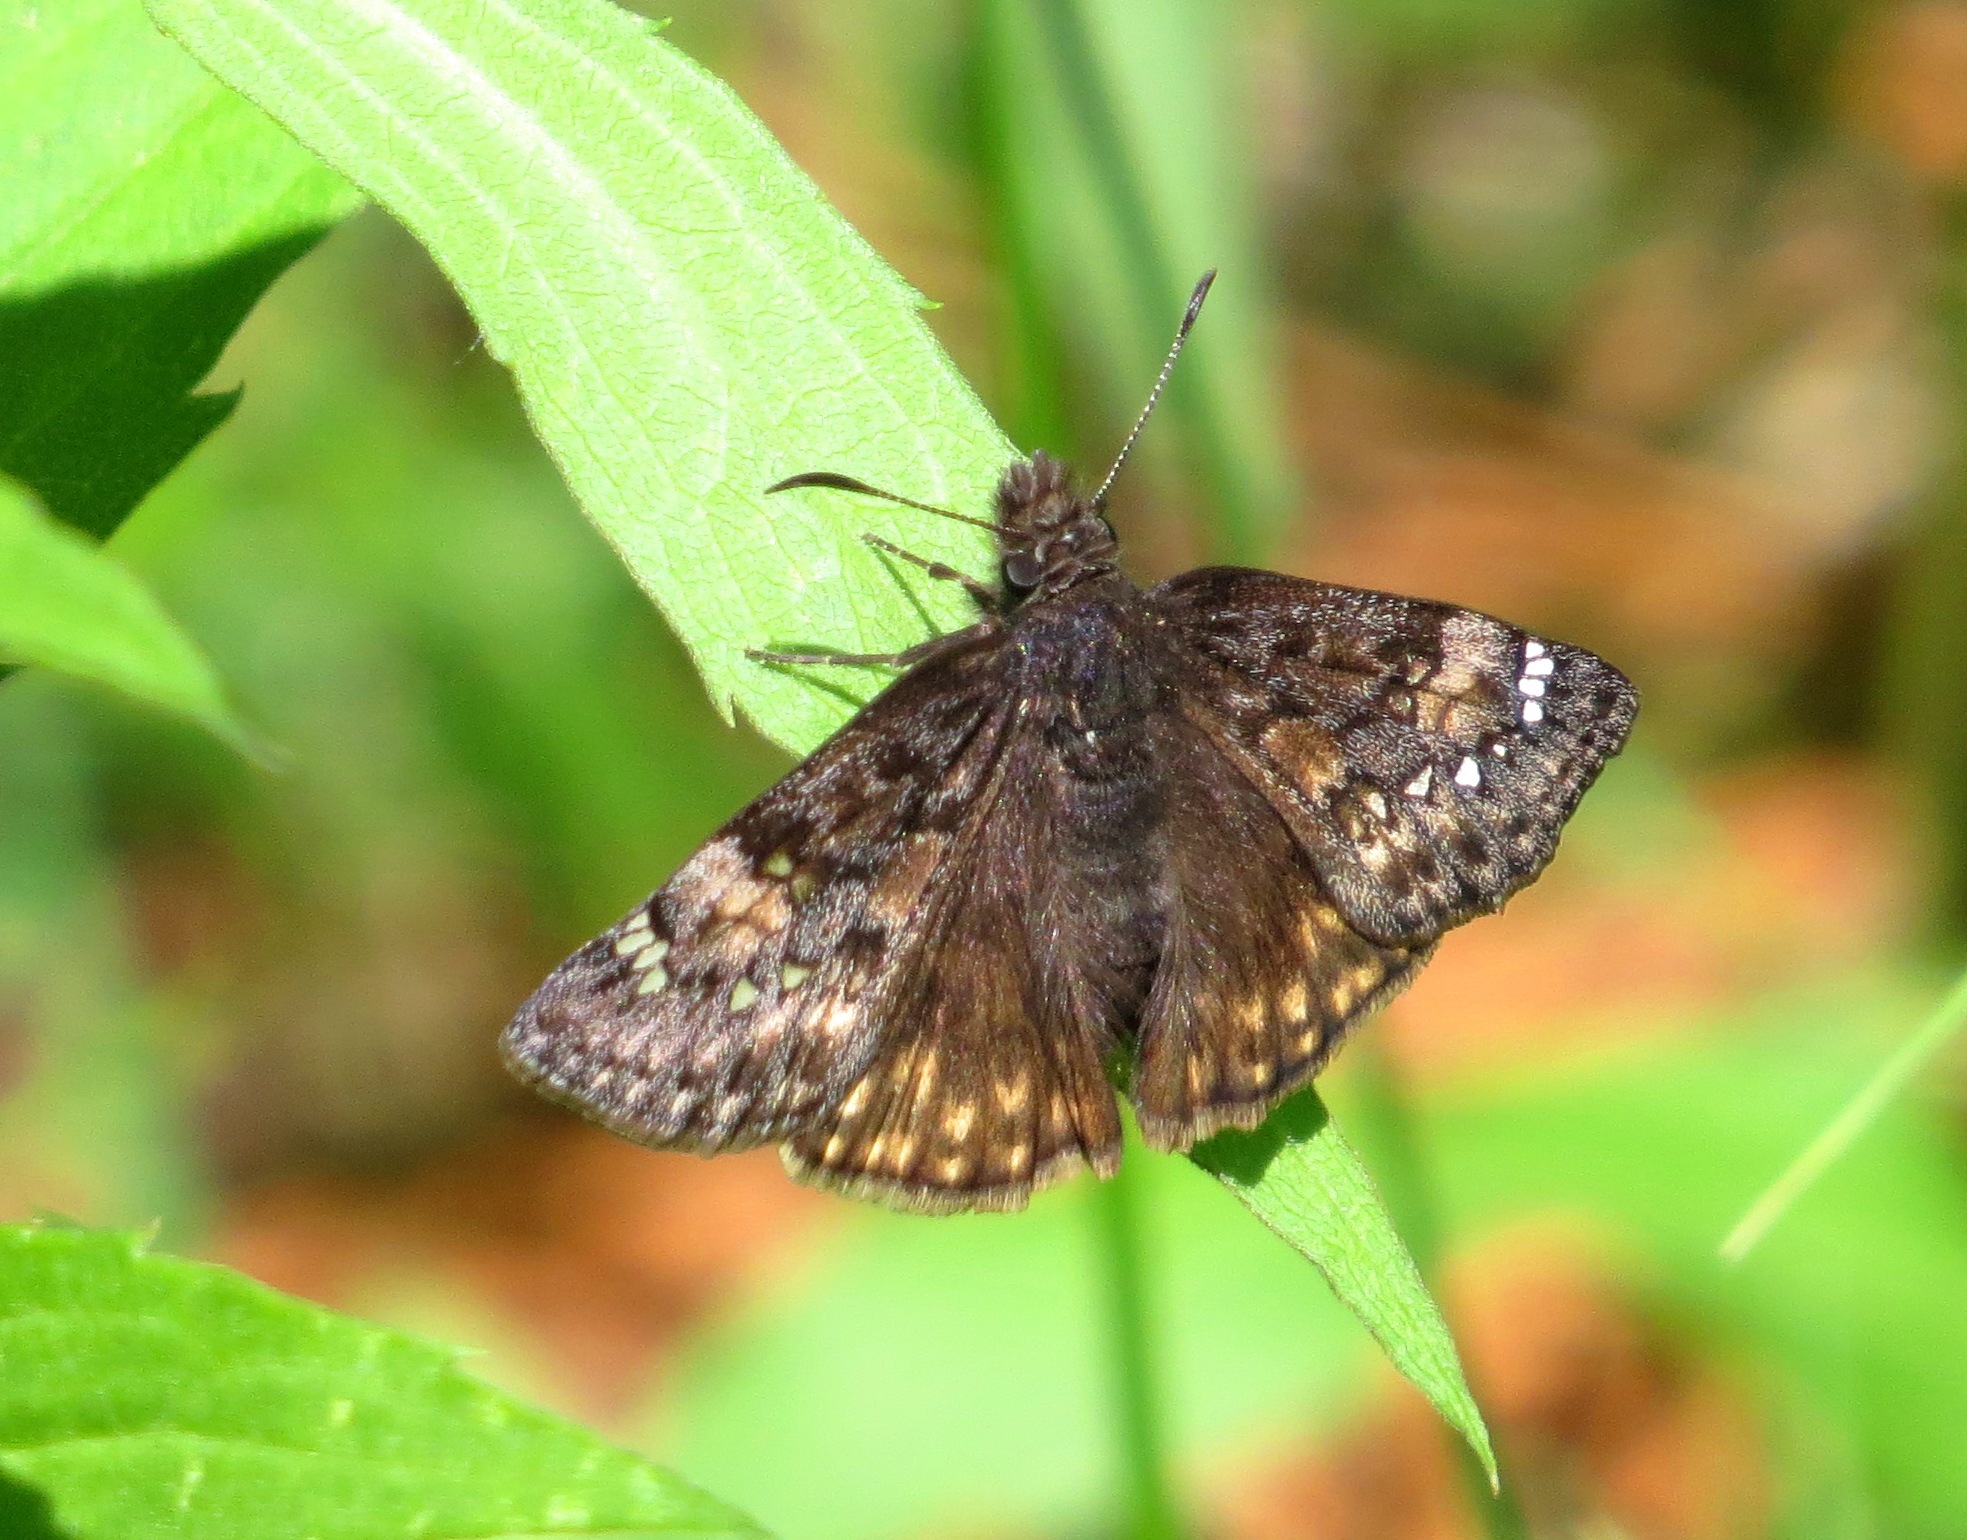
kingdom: Animalia
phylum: Arthropoda
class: Insecta
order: Lepidoptera
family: Hesperiidae
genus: Erynnis
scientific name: Erynnis juvenalis
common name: Juvenal's duskywing
